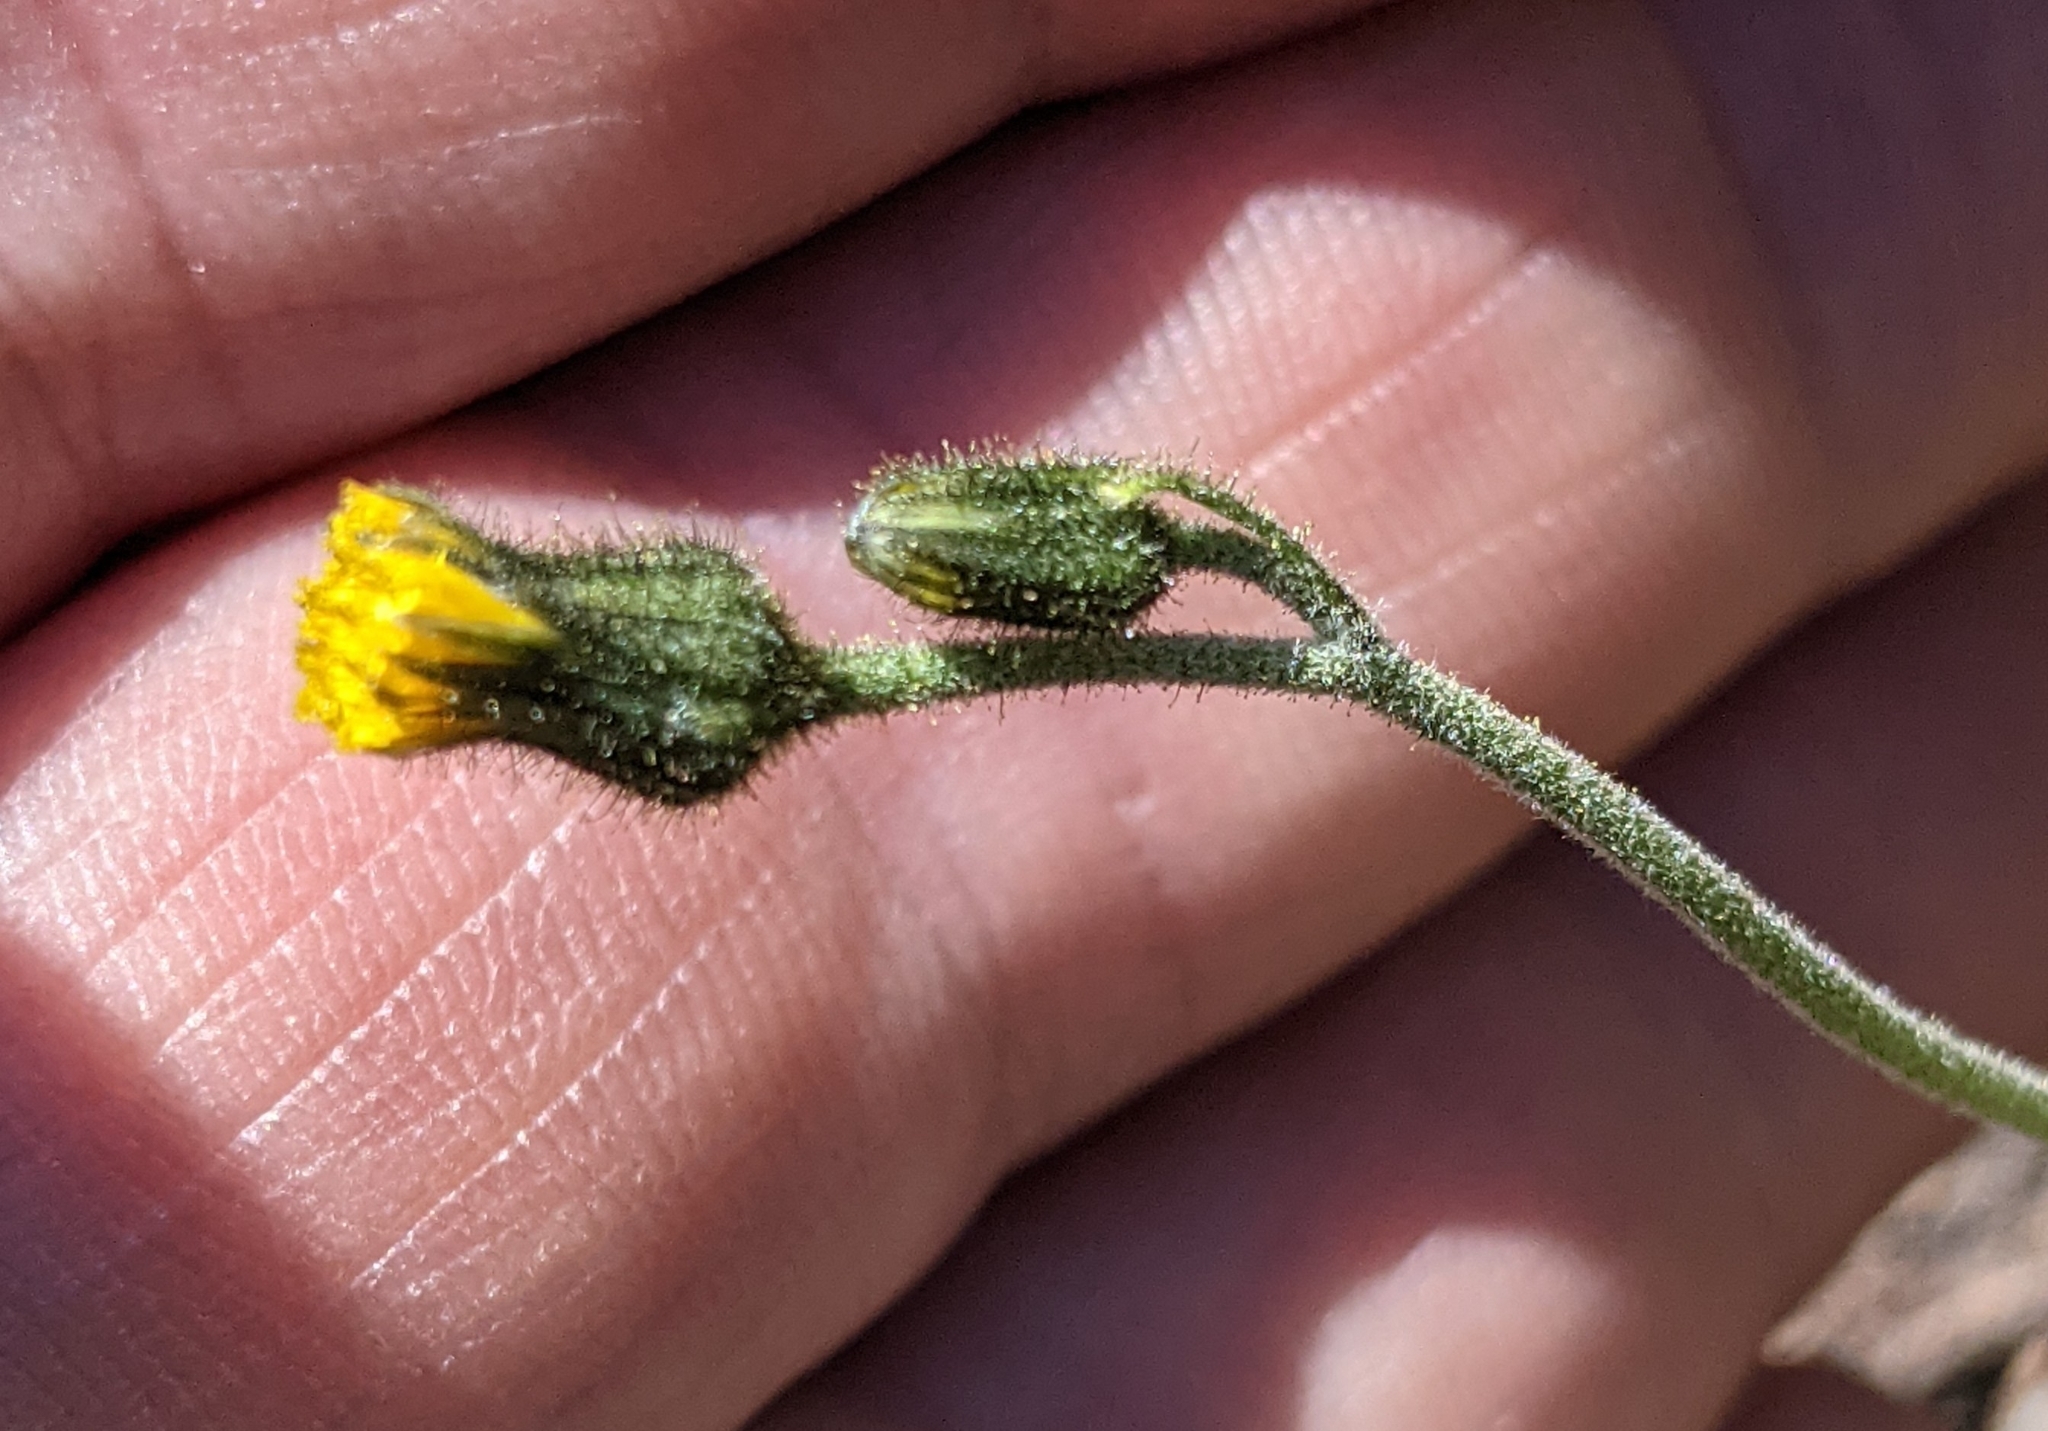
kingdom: Plantae
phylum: Tracheophyta
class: Magnoliopsida
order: Asterales
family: Asteraceae
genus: Hieracium
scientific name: Hieracium triste
